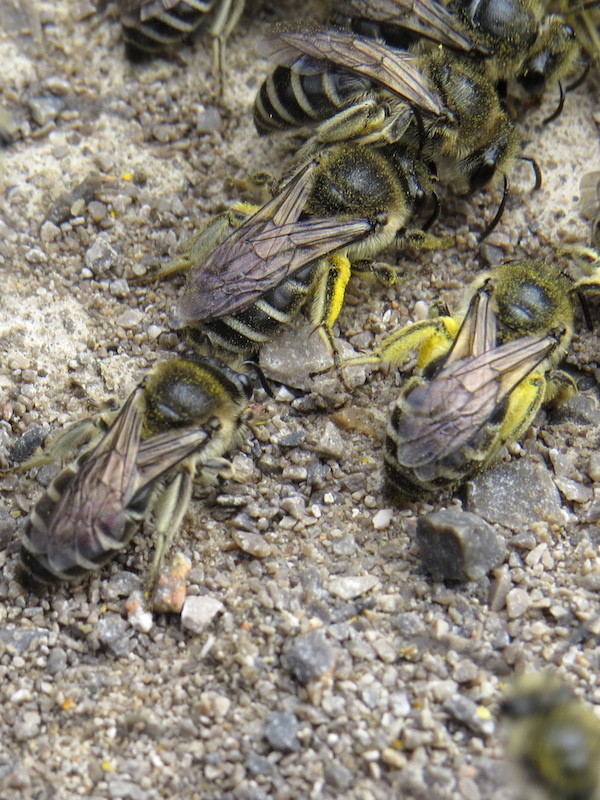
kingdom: Animalia
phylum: Arthropoda
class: Insecta
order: Hymenoptera
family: Colletidae
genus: Colletes
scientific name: Colletes compactus
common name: Aster cellophane bee
